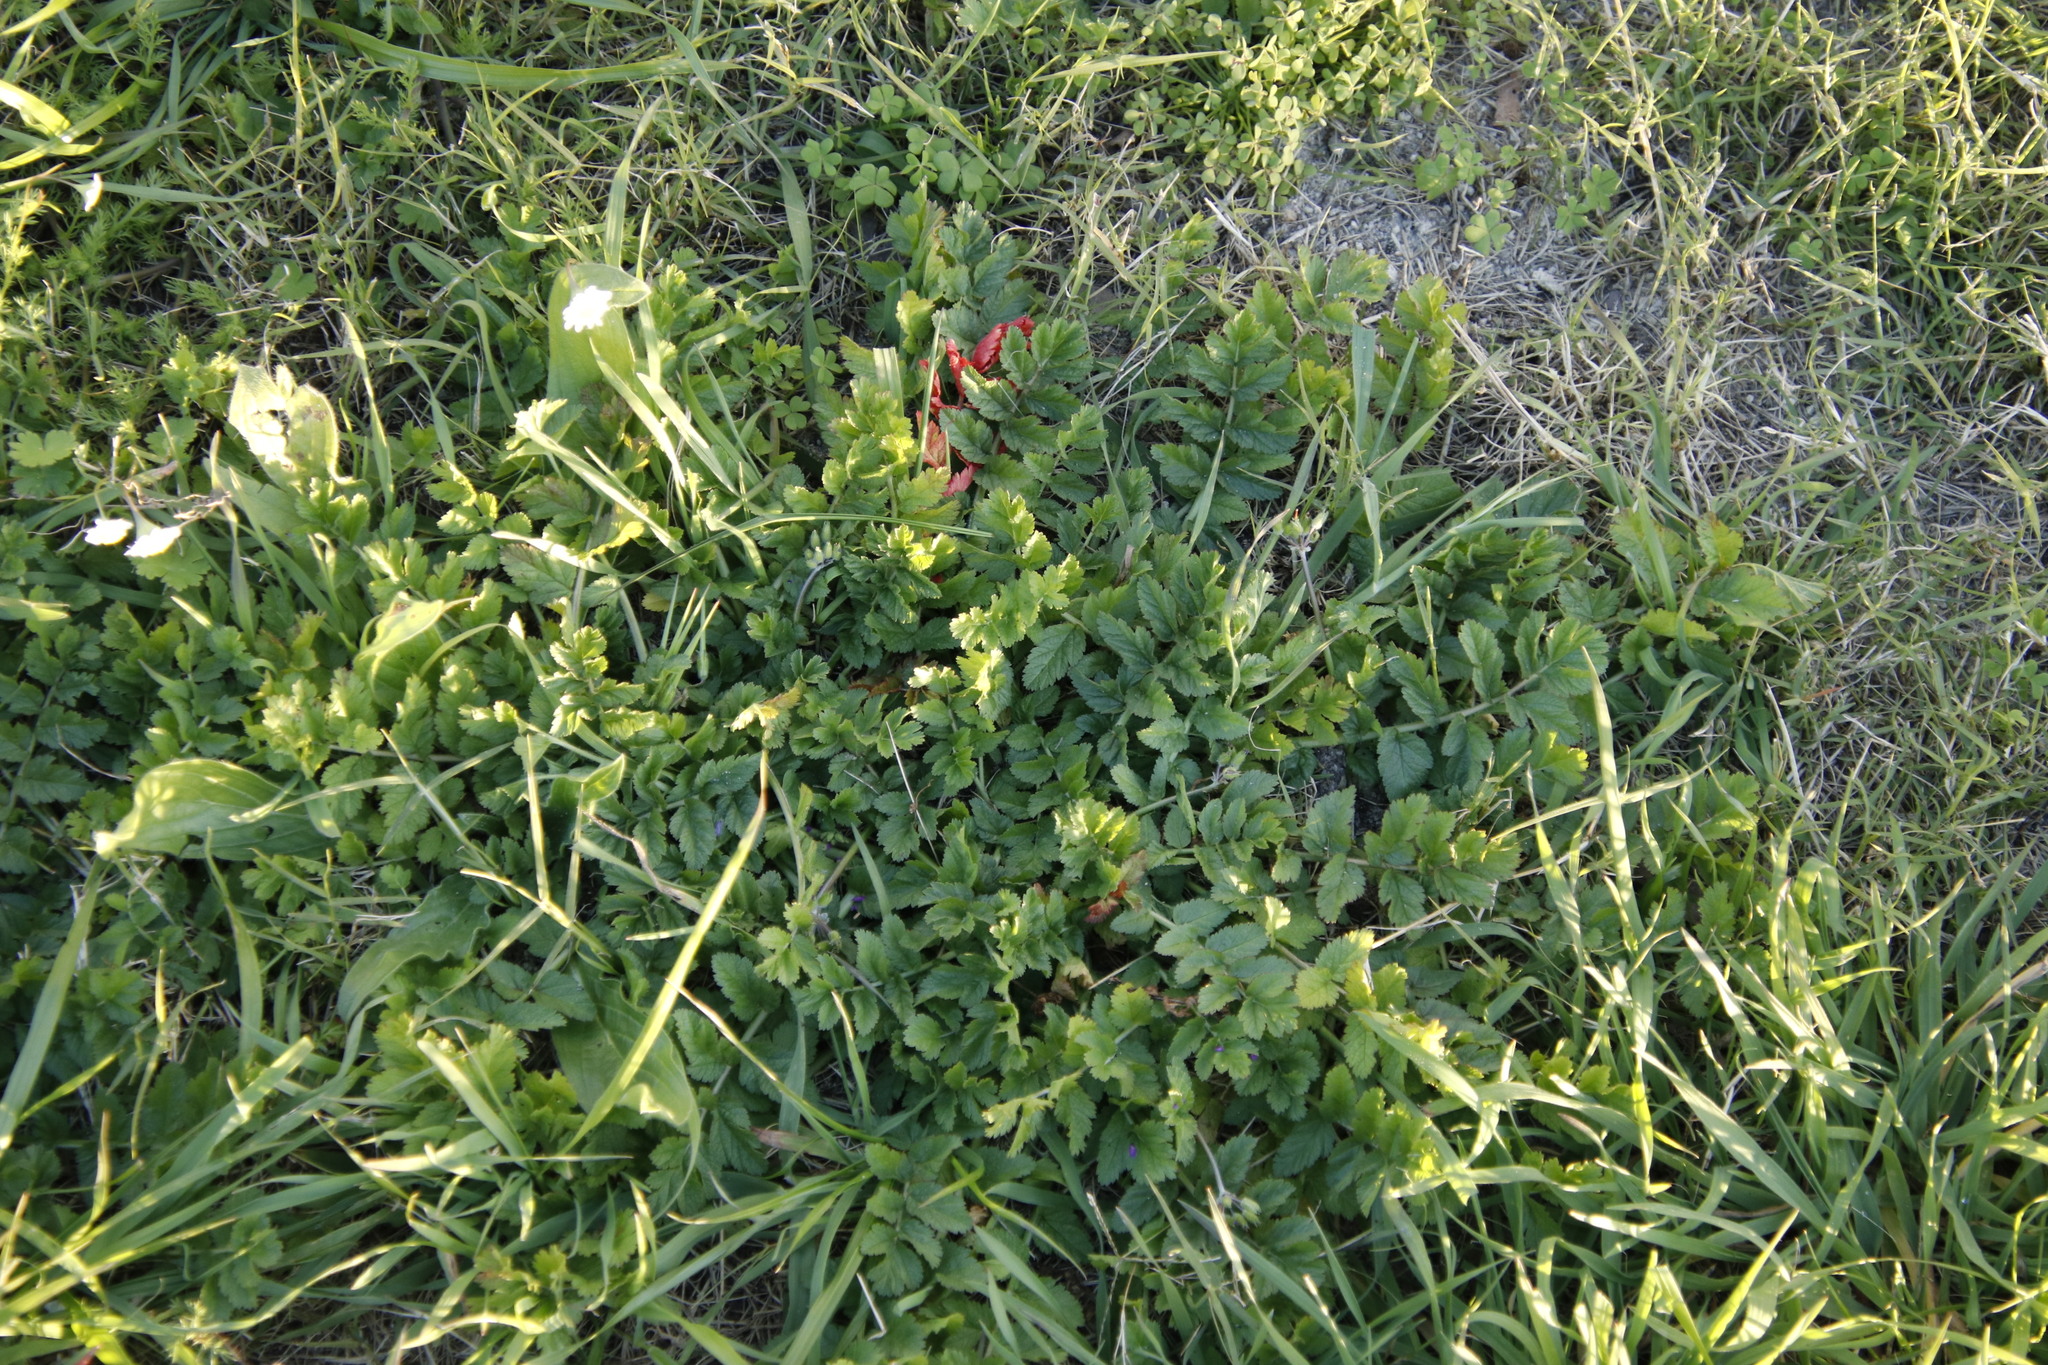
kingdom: Plantae
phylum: Tracheophyta
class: Magnoliopsida
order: Geraniales
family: Geraniaceae
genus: Erodium
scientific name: Erodium moschatum
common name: Musk stork's-bill
